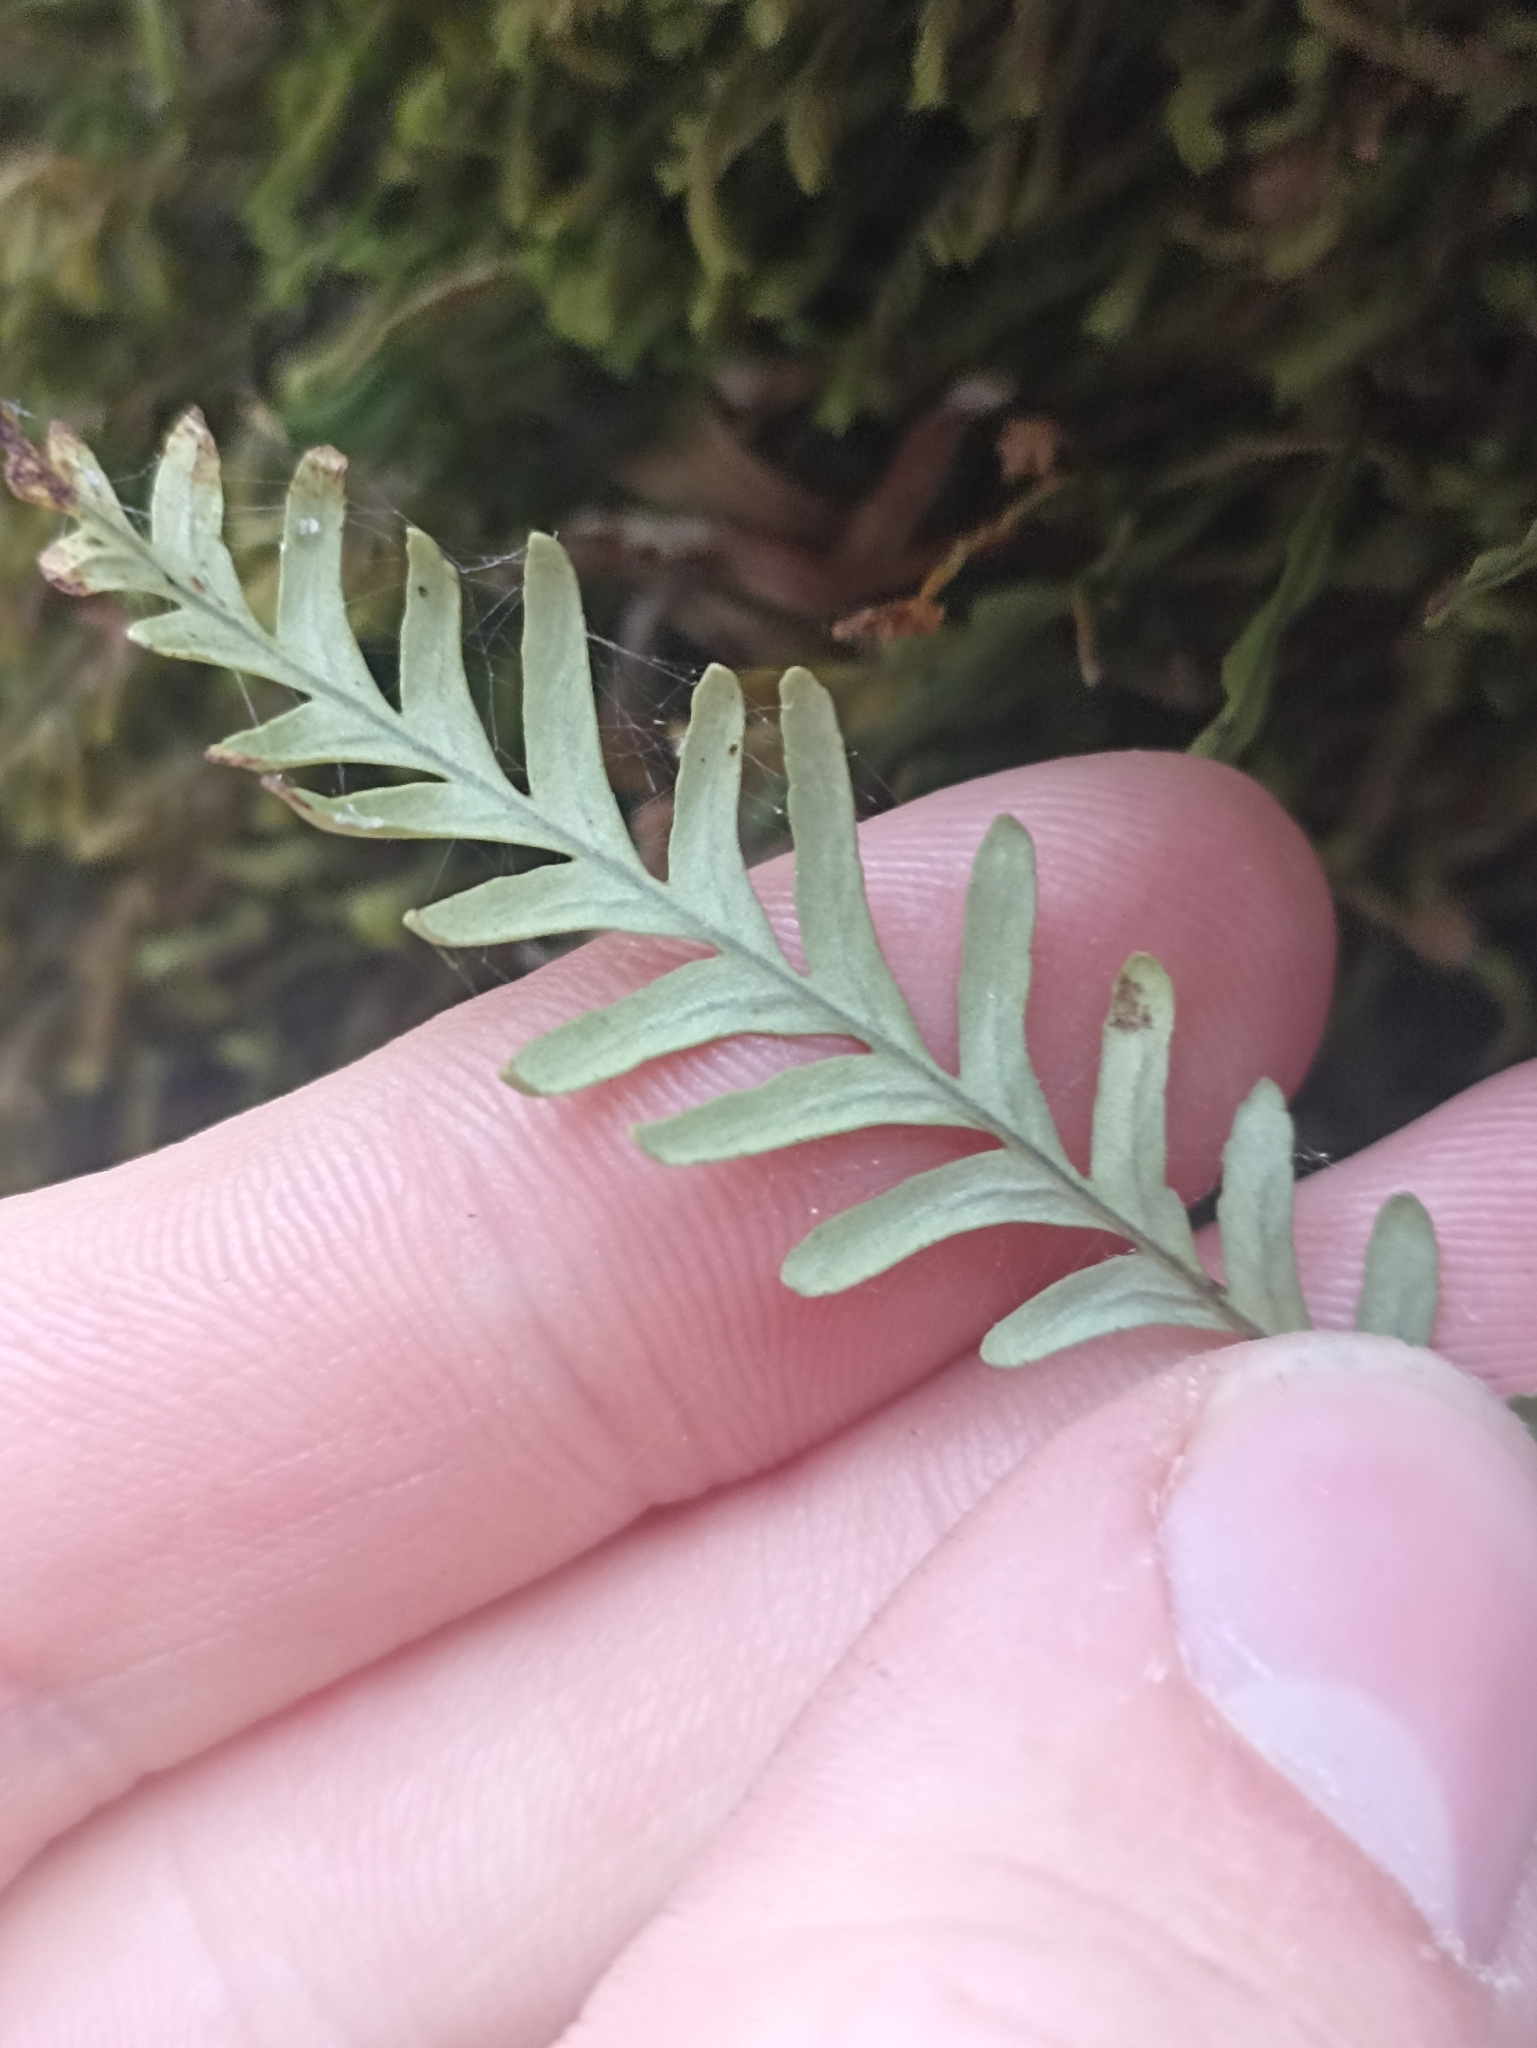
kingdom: Plantae
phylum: Tracheophyta
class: Polypodiopsida
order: Polypodiales
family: Polypodiaceae
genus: Notogrammitis
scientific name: Notogrammitis heterophylla
